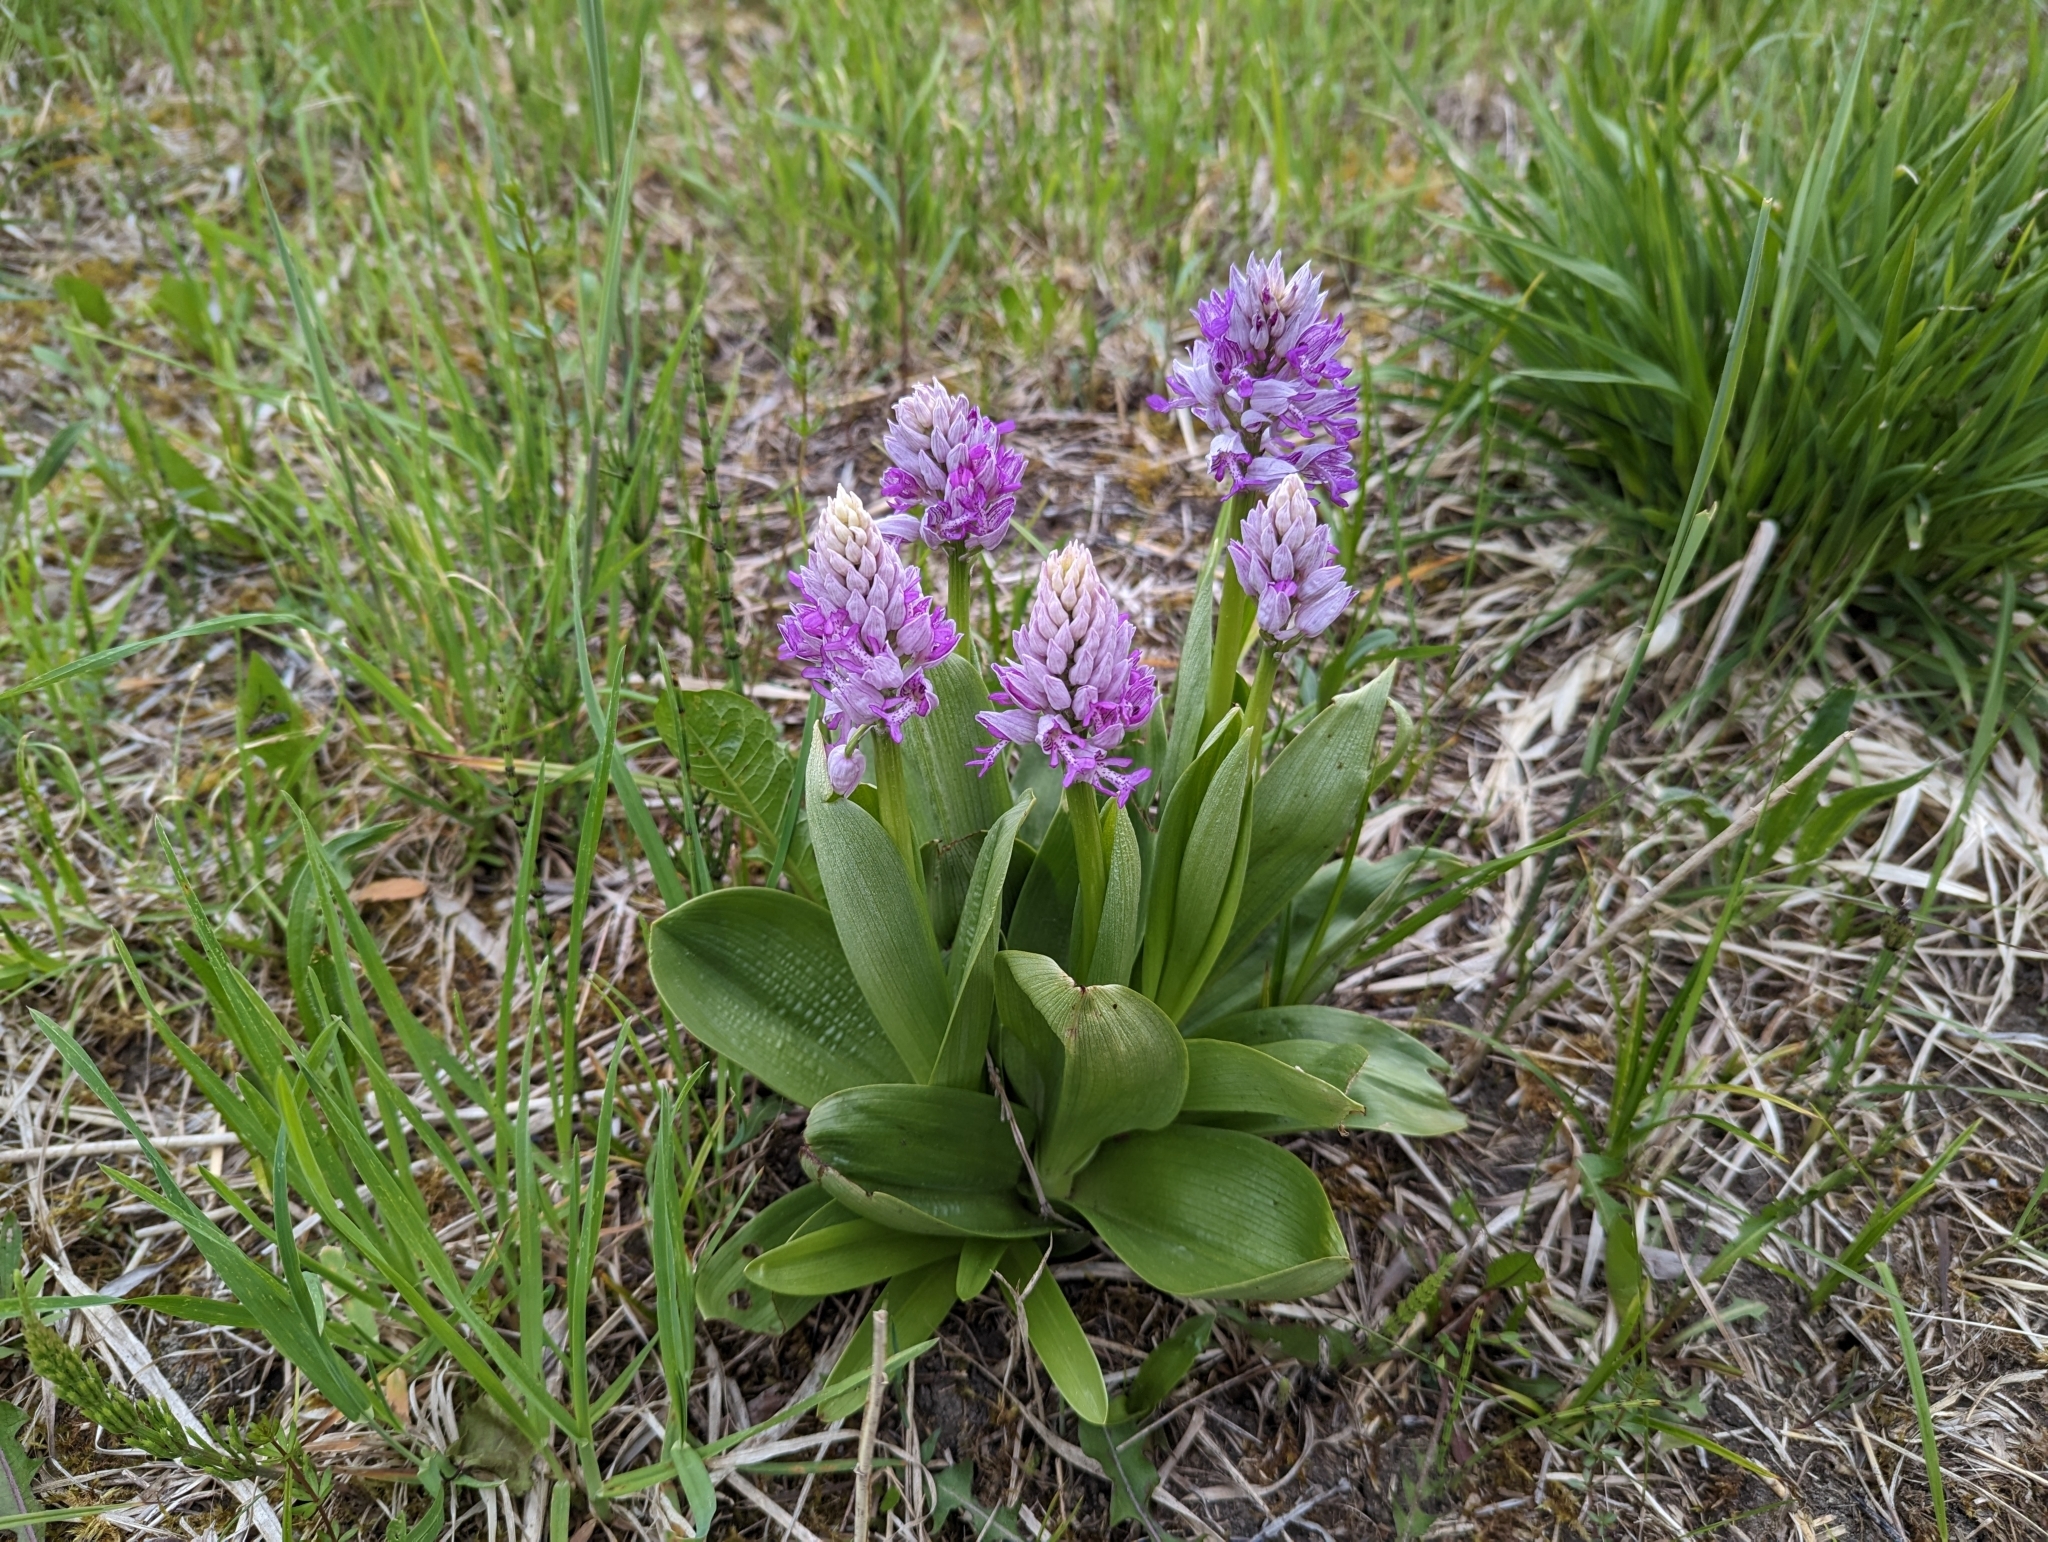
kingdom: Plantae
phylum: Tracheophyta
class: Liliopsida
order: Asparagales
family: Orchidaceae
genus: Orchis
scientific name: Orchis militaris
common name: Military orchid
